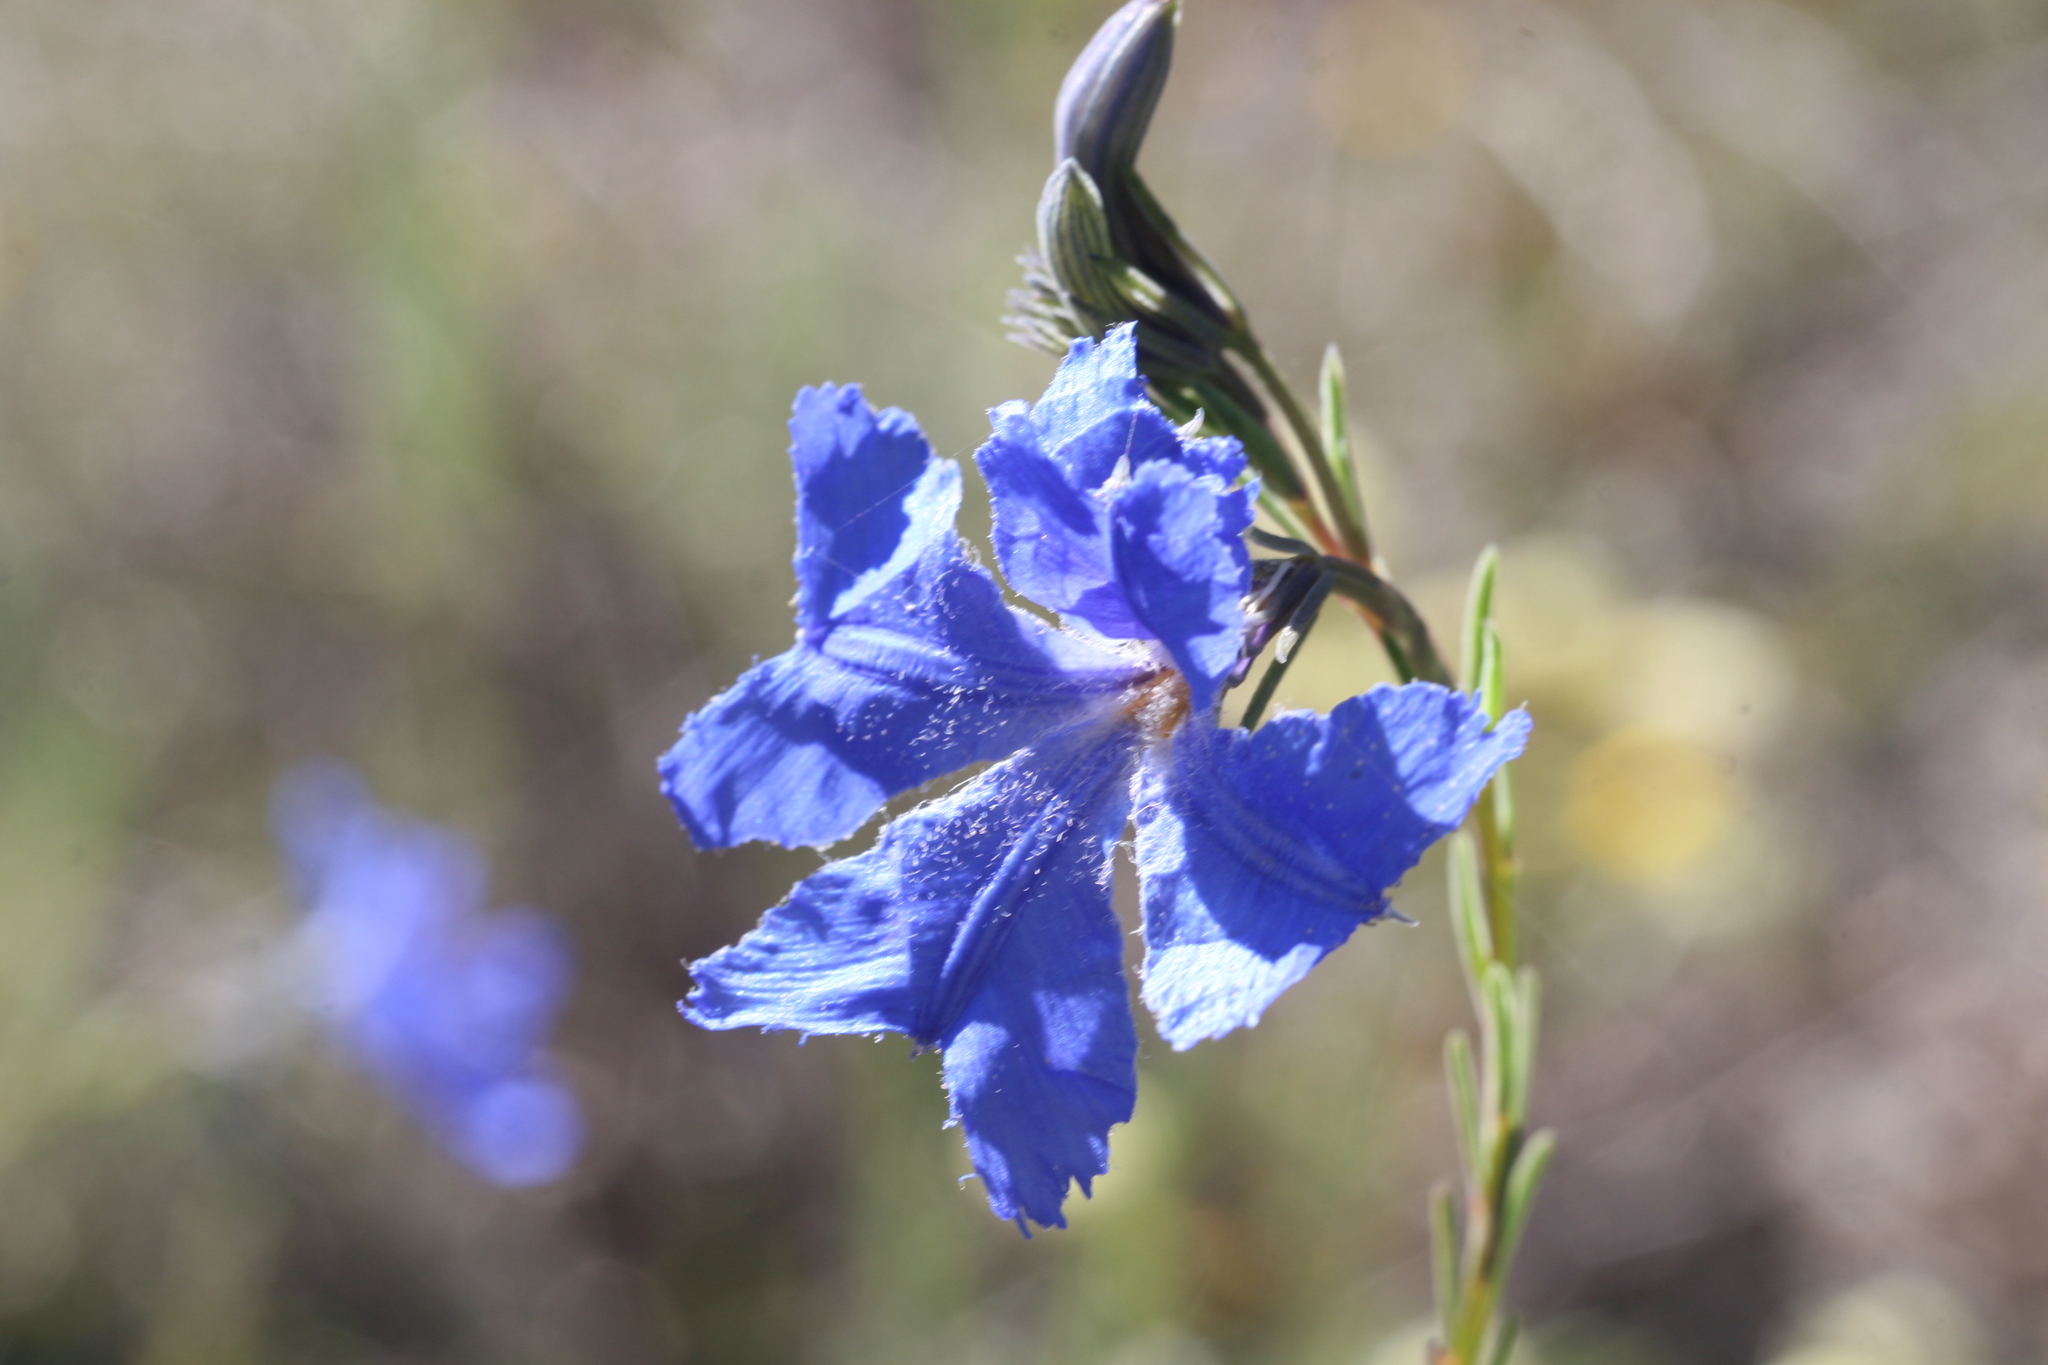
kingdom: Plantae
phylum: Tracheophyta
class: Magnoliopsida
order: Asterales
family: Goodeniaceae
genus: Lechenaultia
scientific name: Lechenaultia biloba
